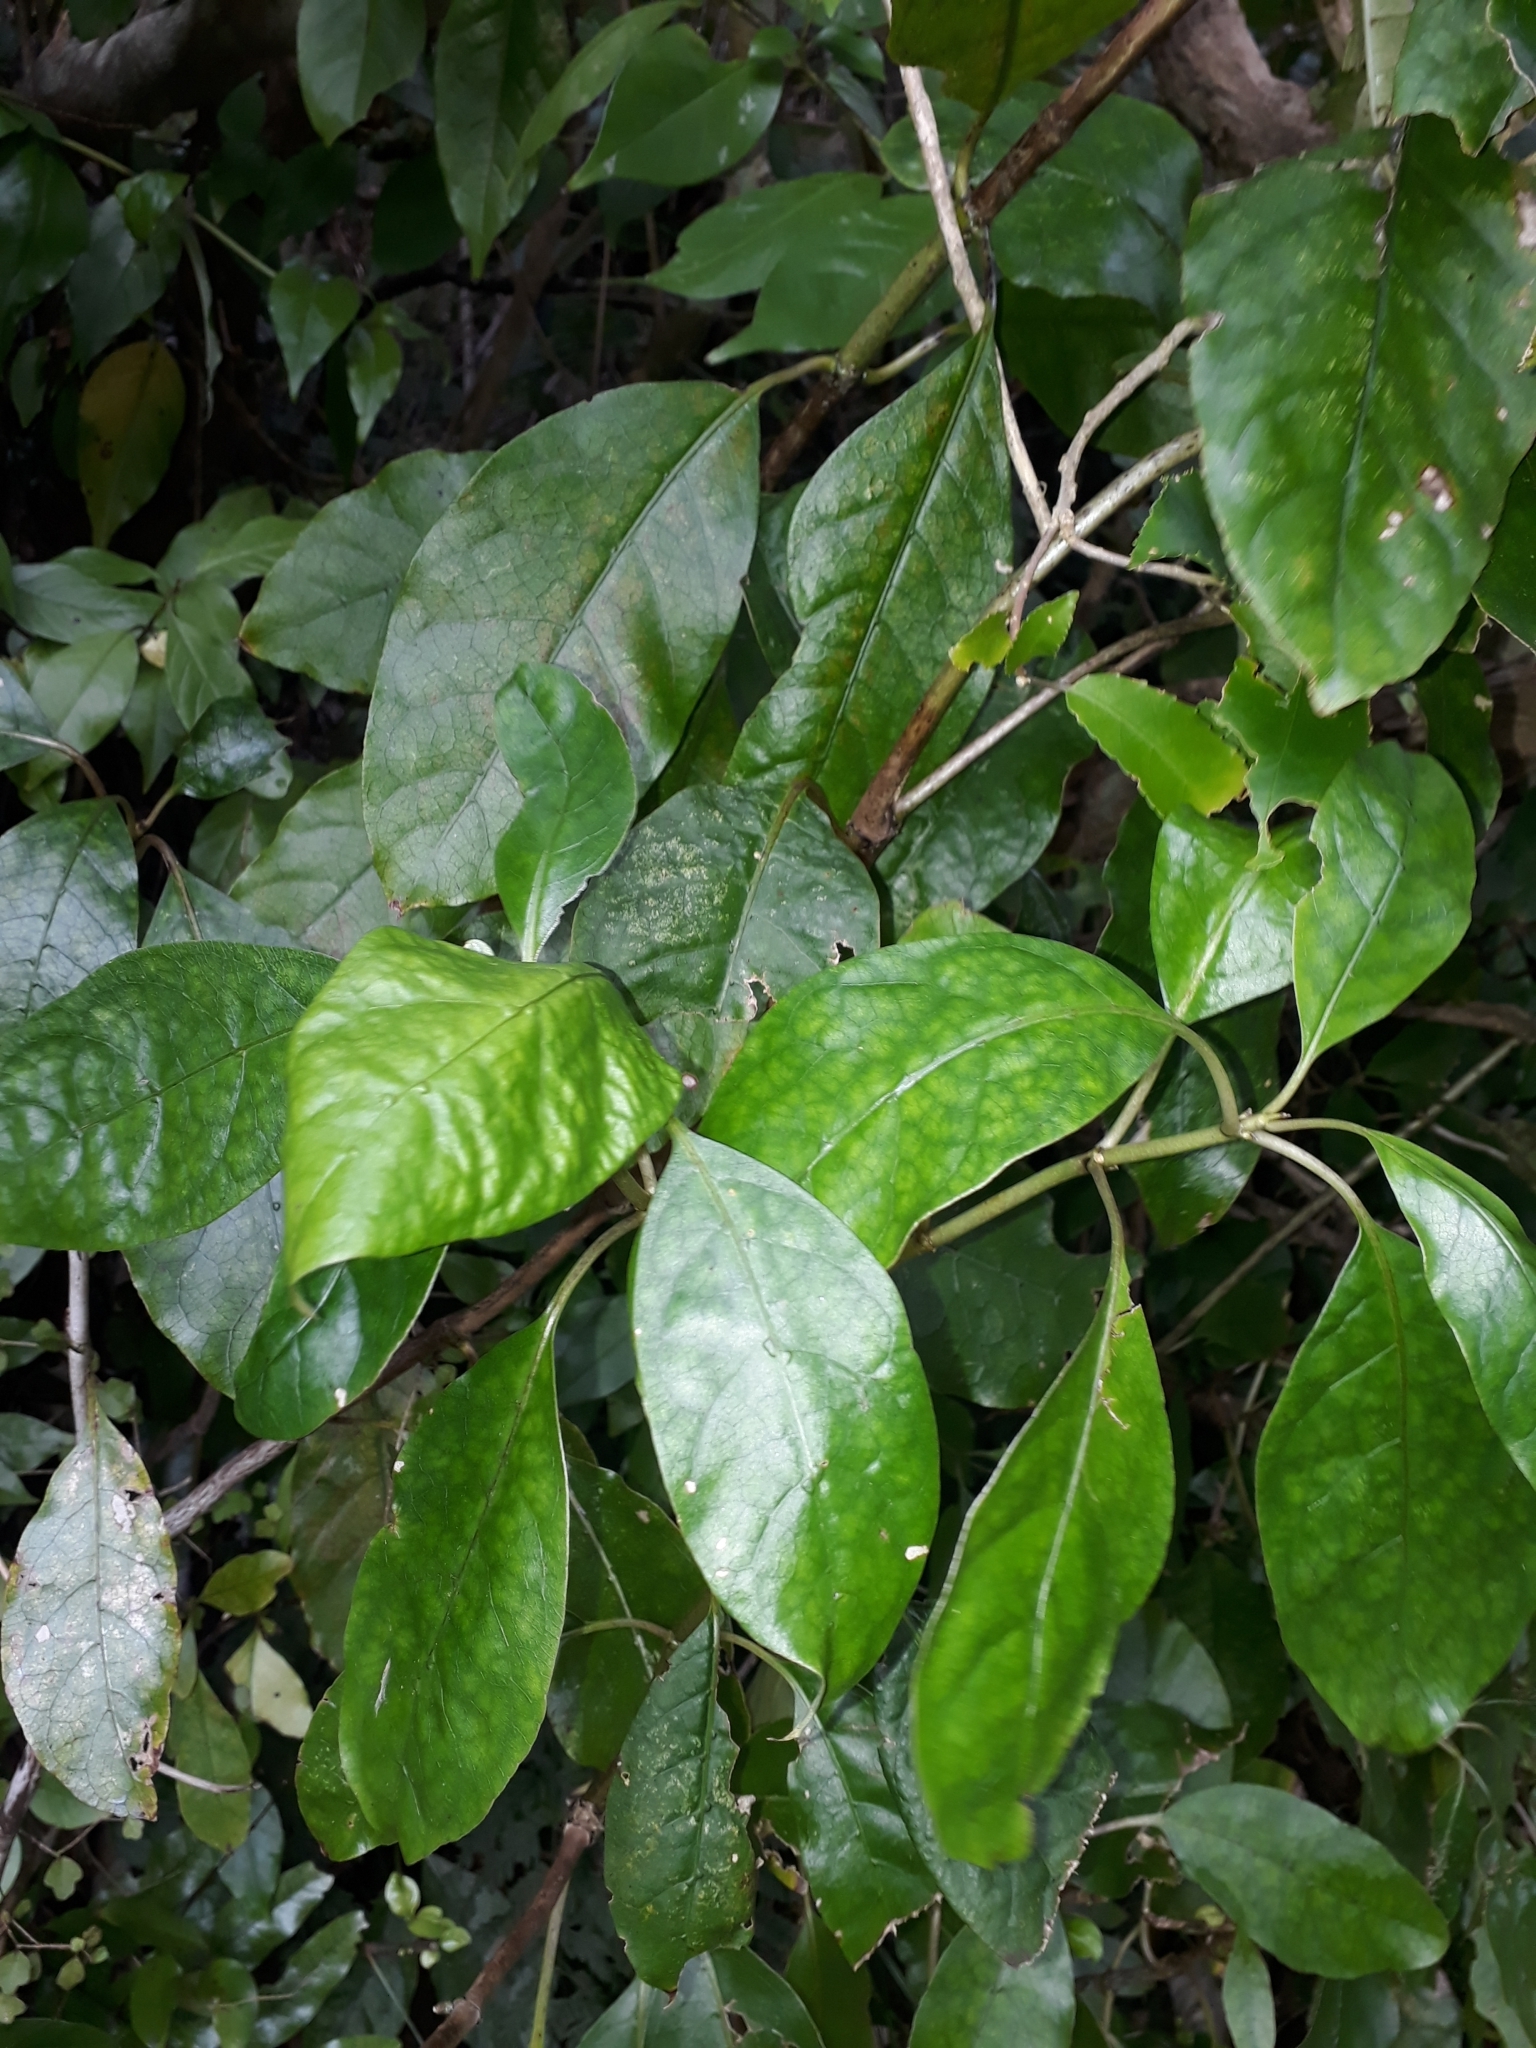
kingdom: Plantae
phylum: Tracheophyta
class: Magnoliopsida
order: Gentianales
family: Rubiaceae
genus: Coprosma
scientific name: Coprosma autumnalis
